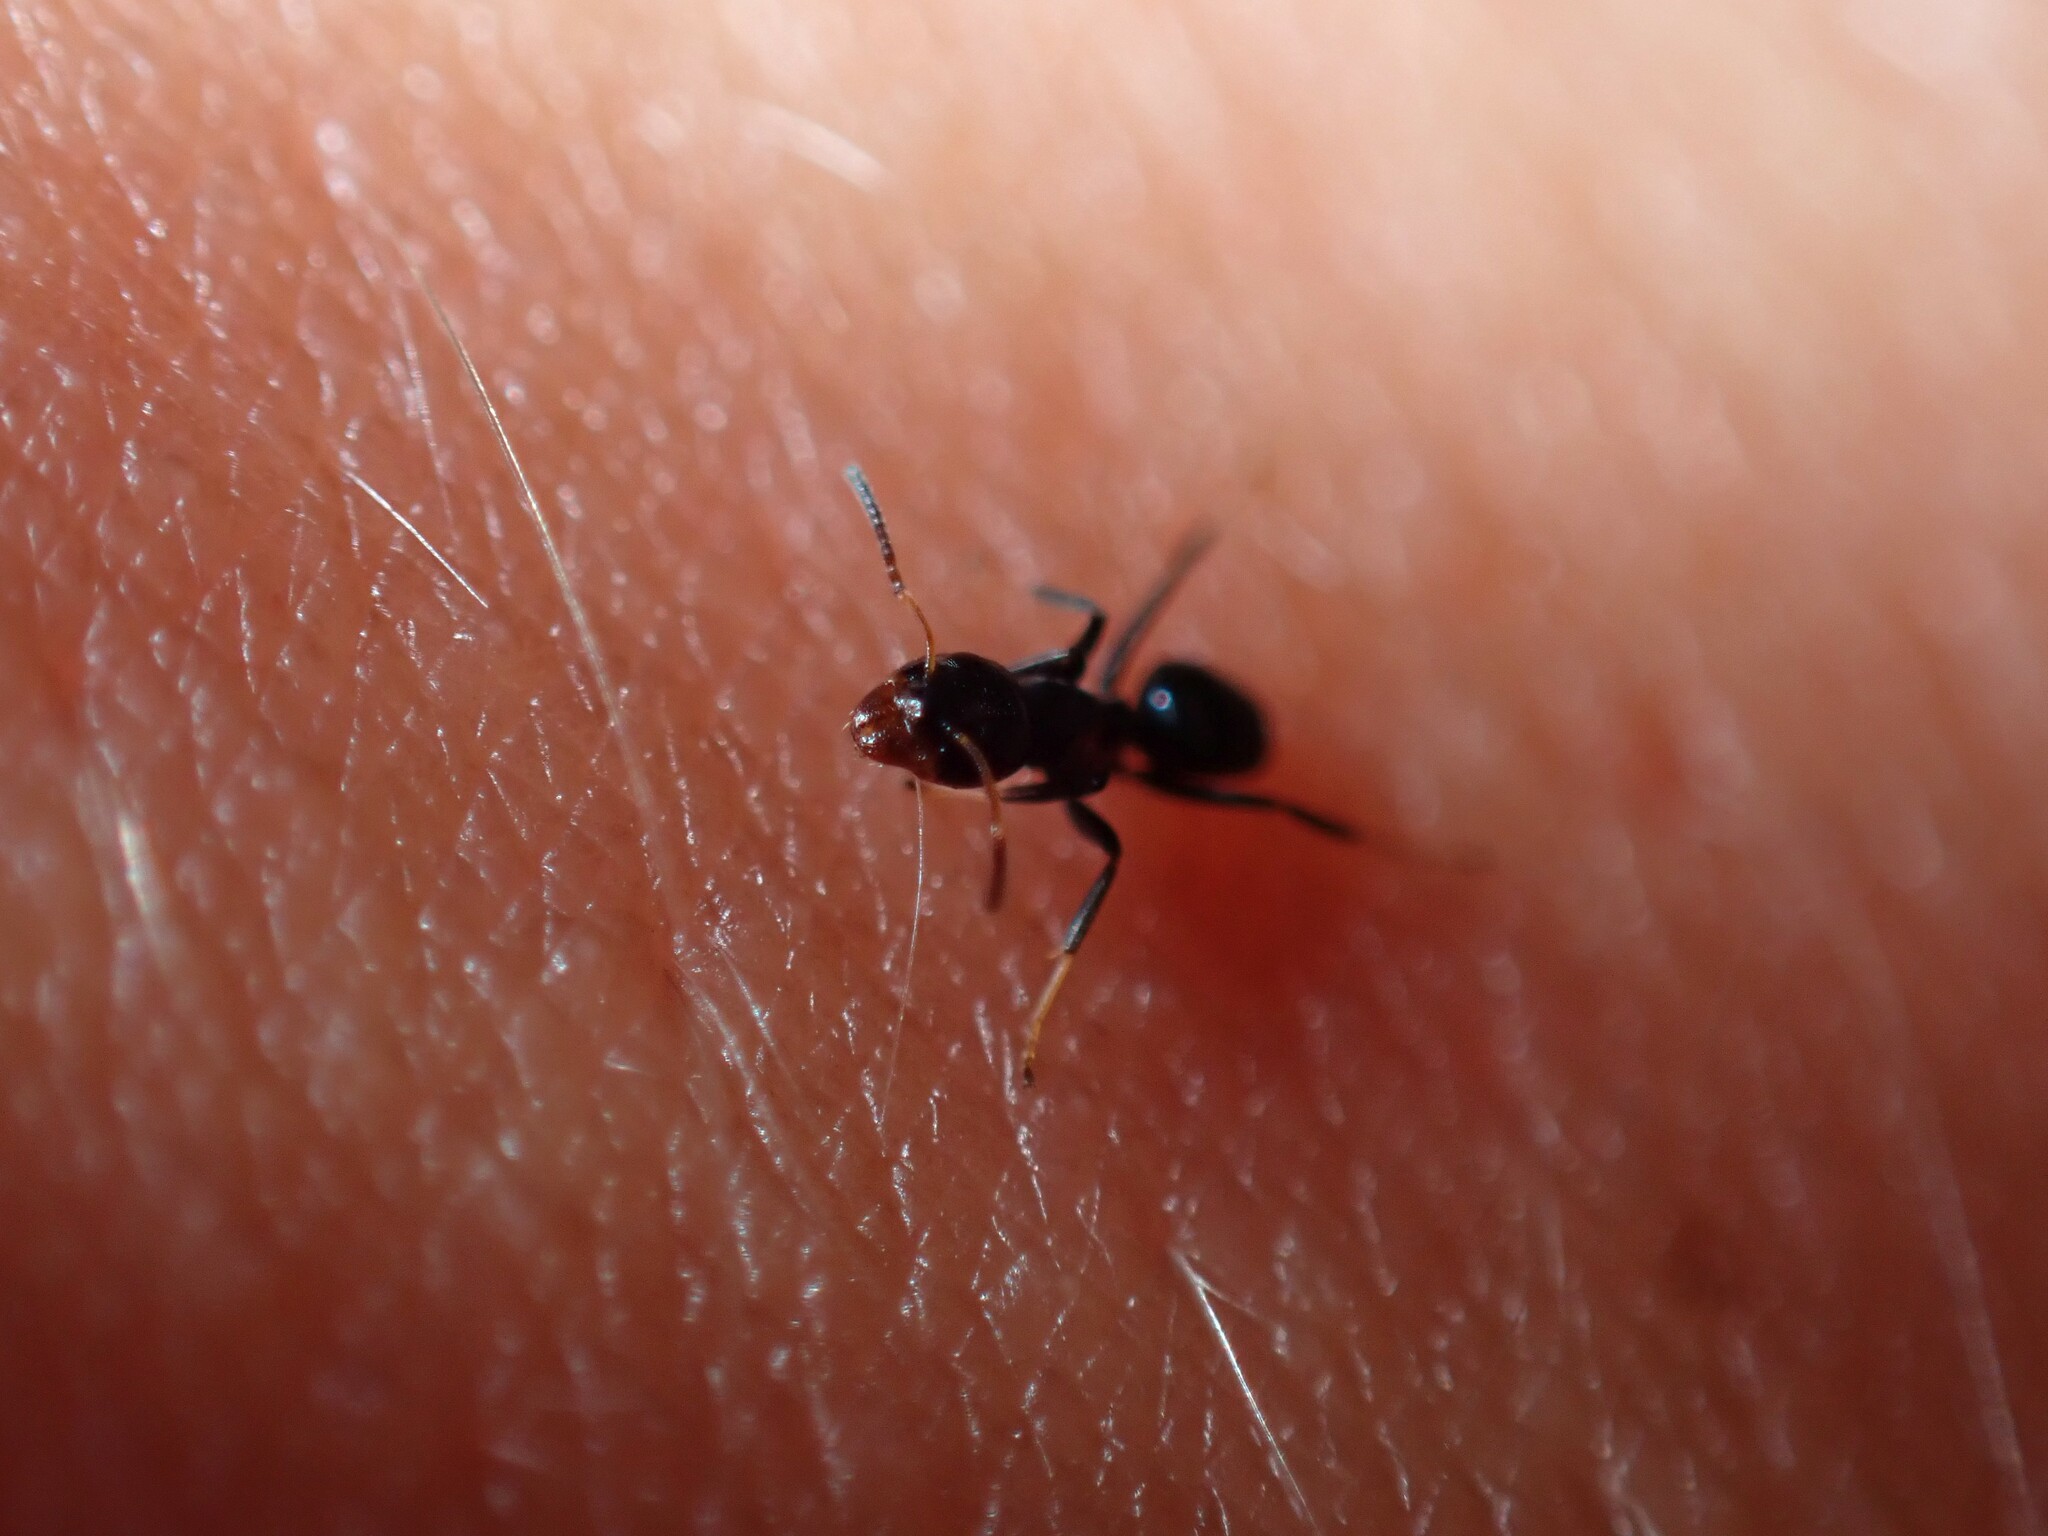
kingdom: Animalia
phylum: Arthropoda
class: Insecta
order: Hymenoptera
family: Formicidae
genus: Turneria
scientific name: Turneria dahlii
